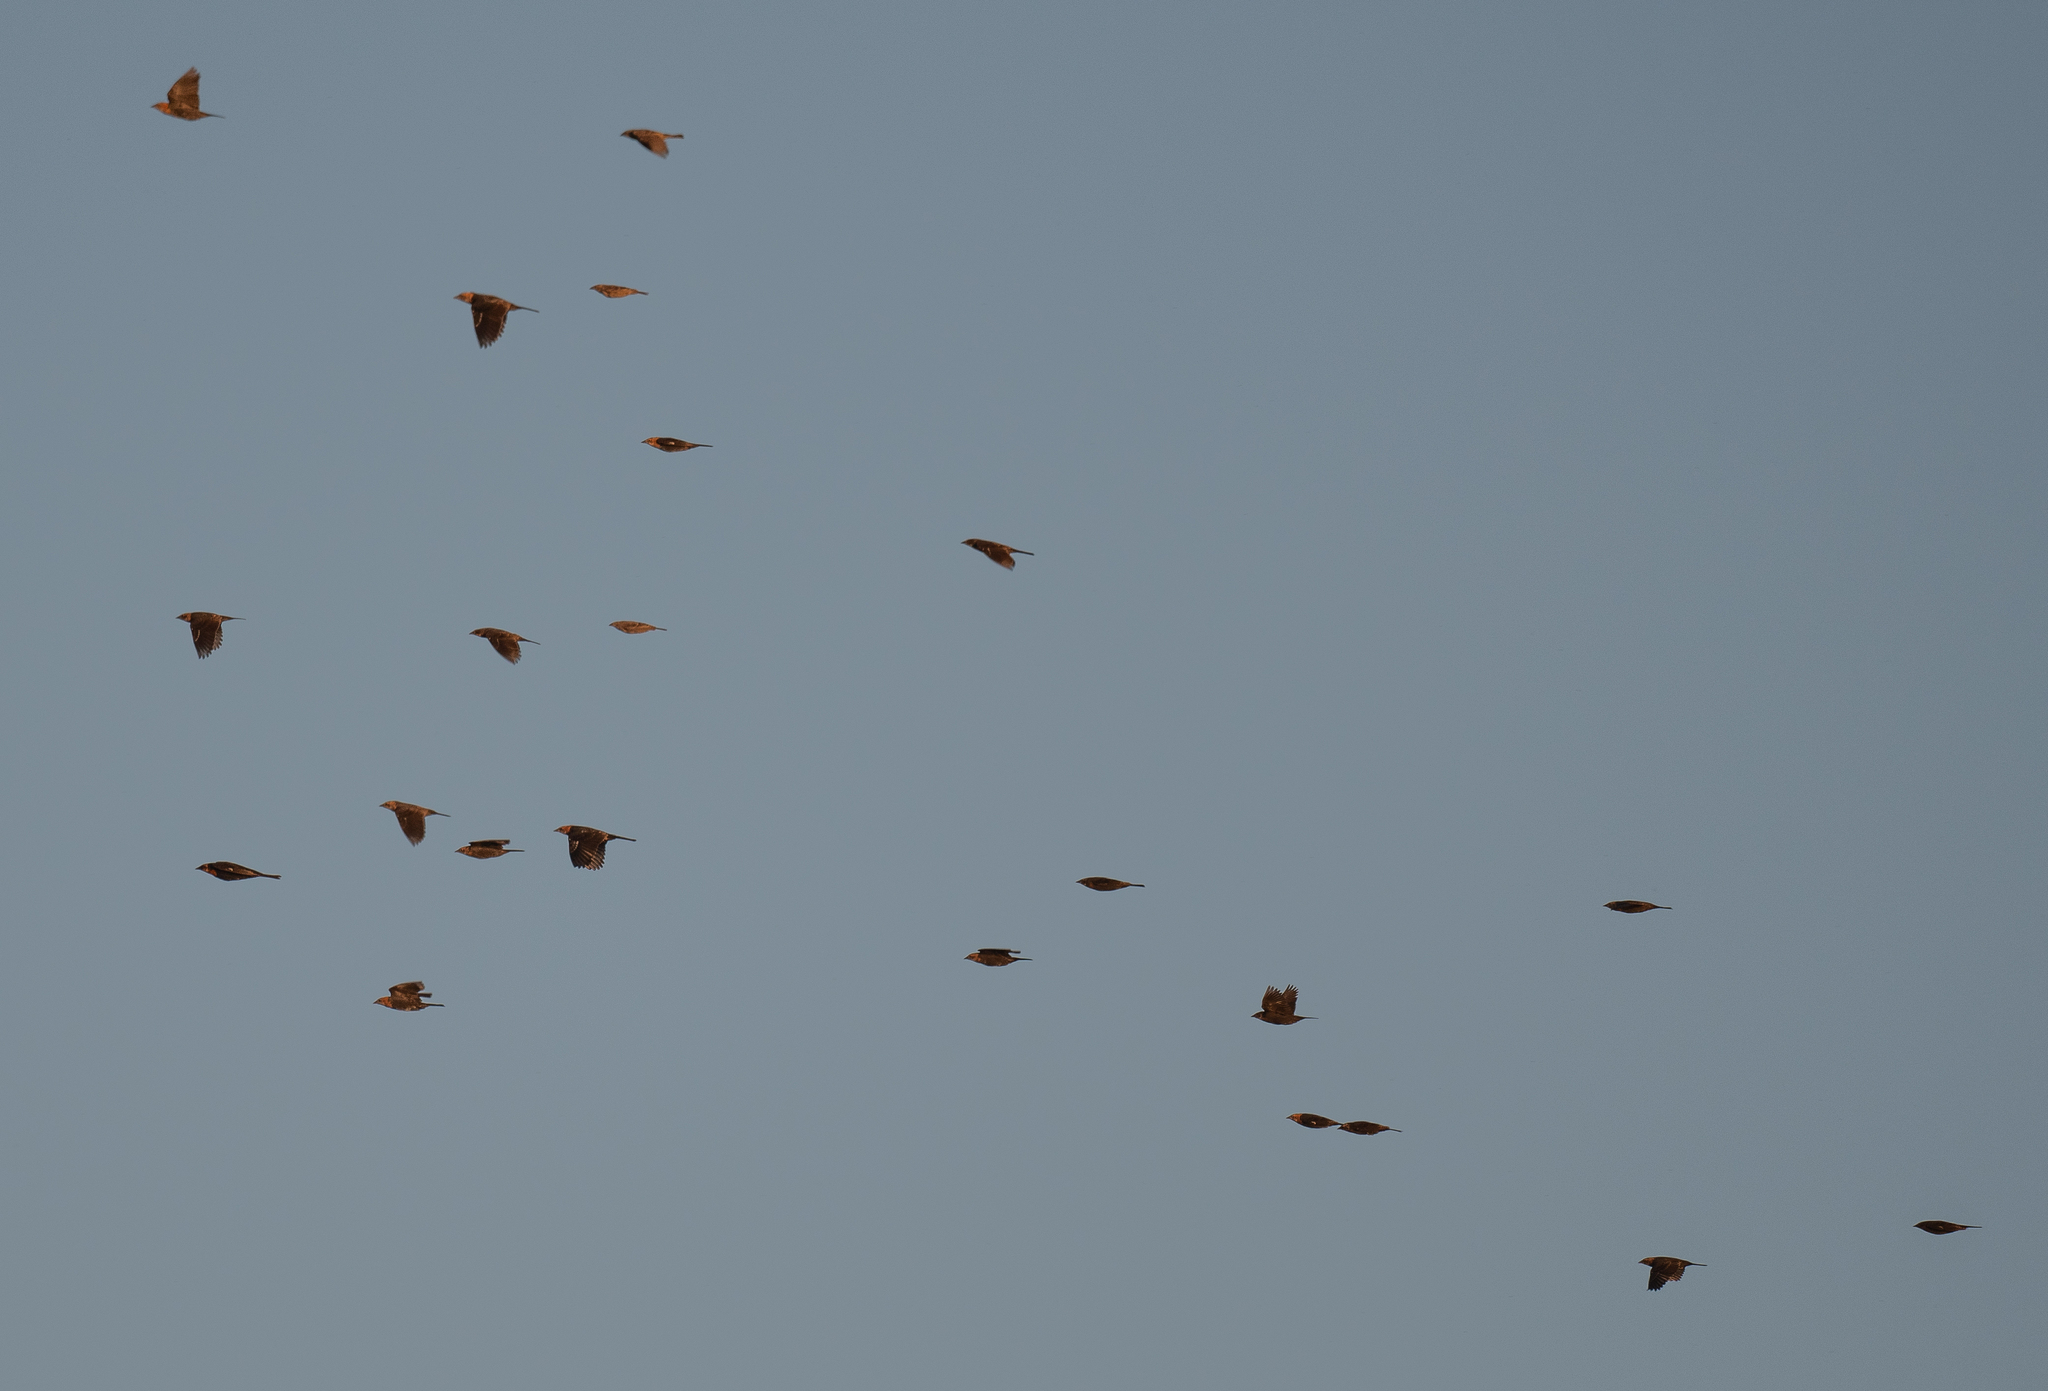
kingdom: Animalia
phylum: Chordata
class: Aves
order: Passeriformes
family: Icteridae
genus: Xanthocephalus
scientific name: Xanthocephalus xanthocephalus
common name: Yellow-headed blackbird
